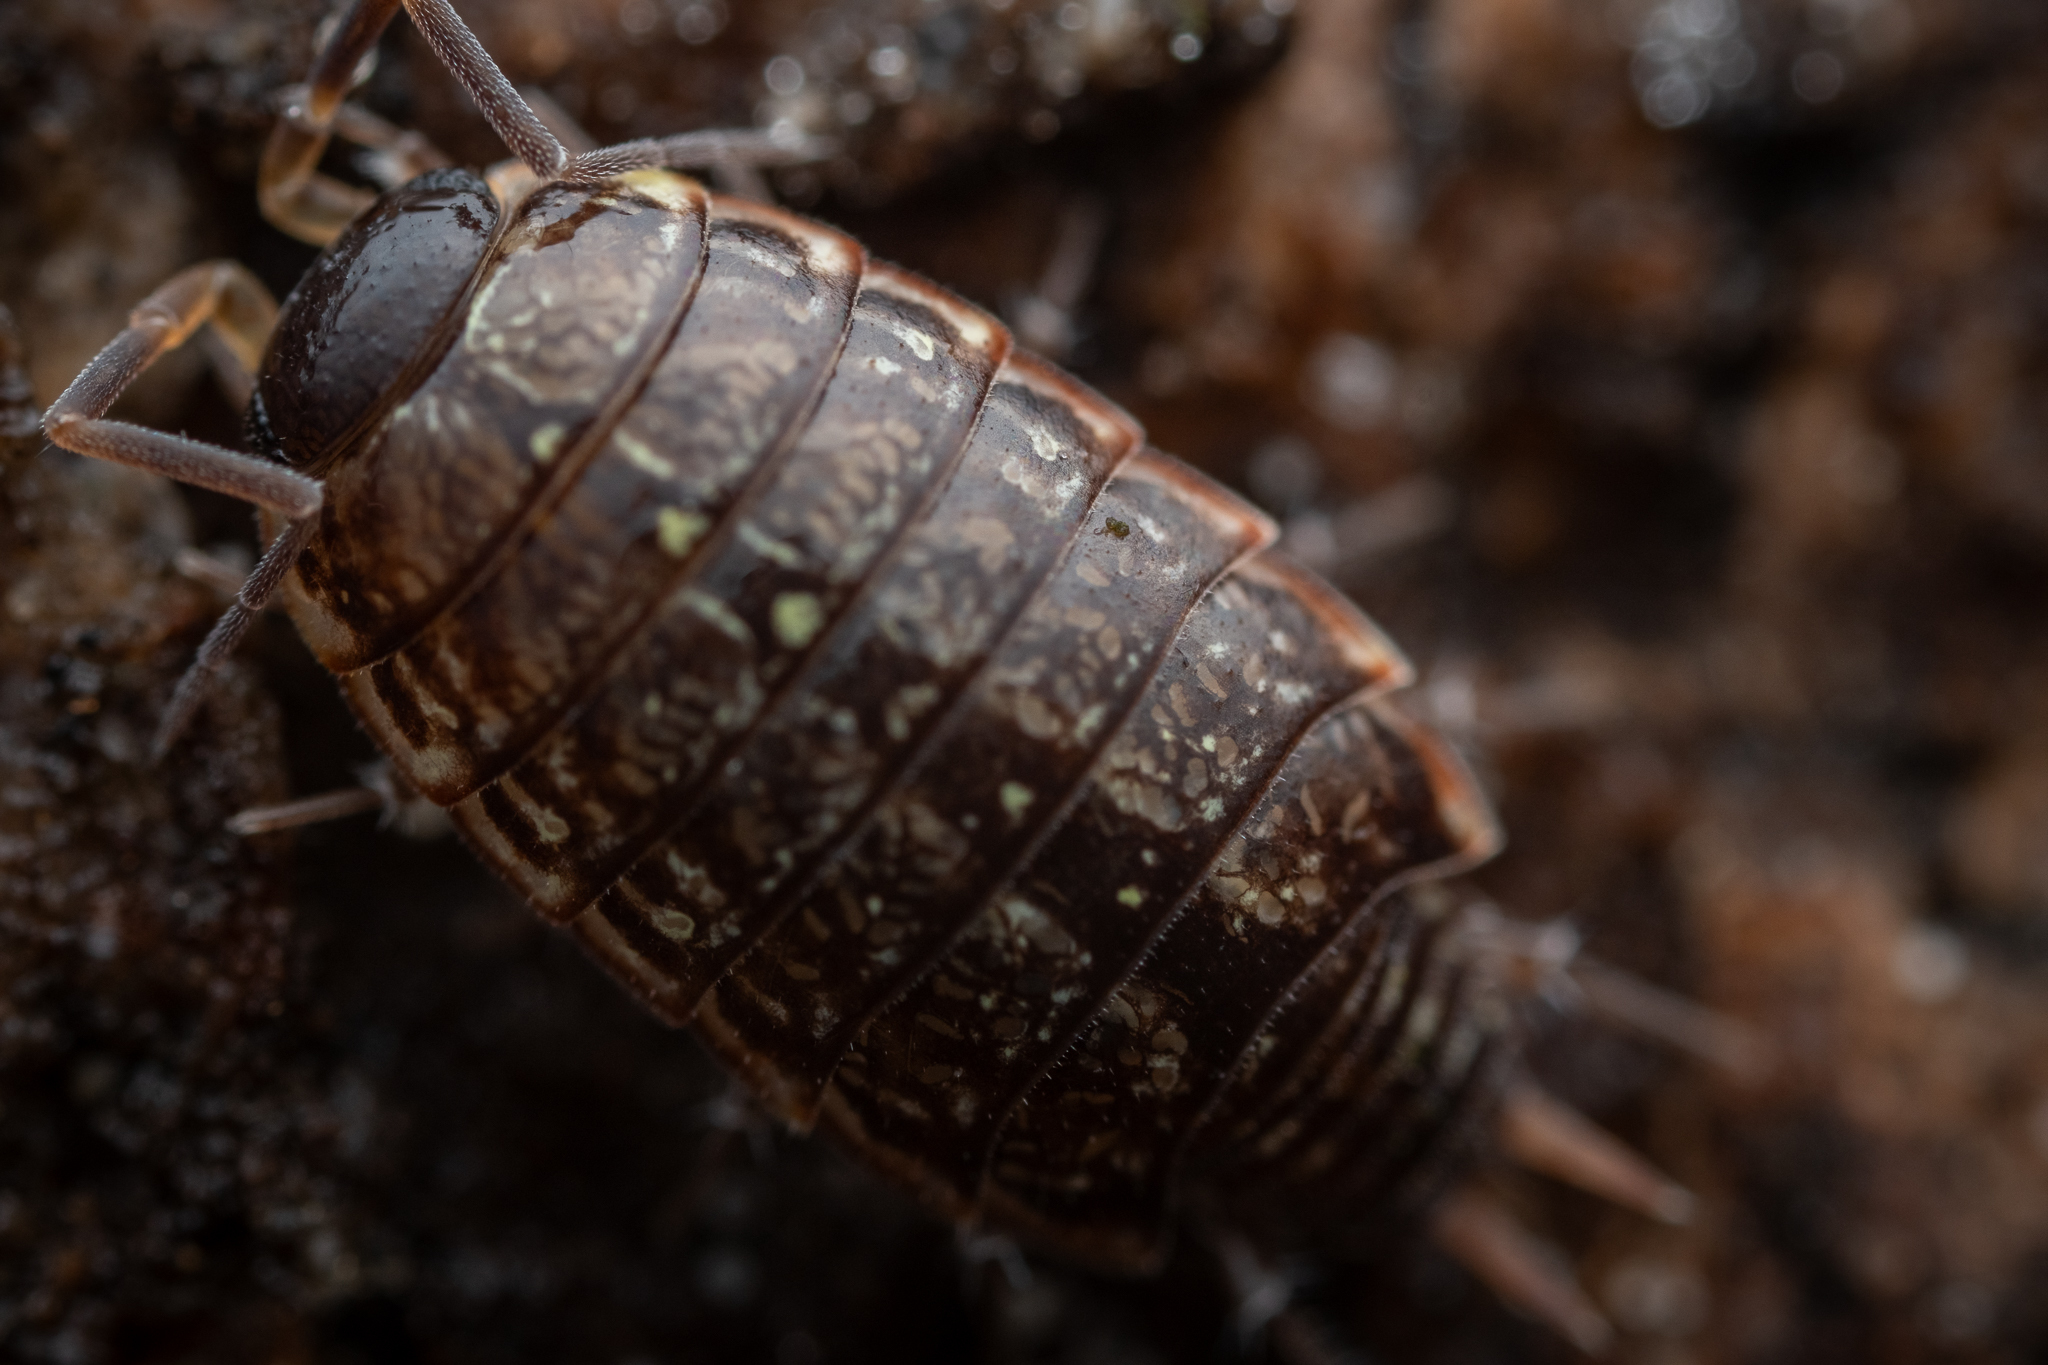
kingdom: Animalia
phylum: Arthropoda
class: Malacostraca
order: Isopoda
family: Philosciidae
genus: Philoscia
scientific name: Philoscia muscorum
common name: Common striped woodlouse
